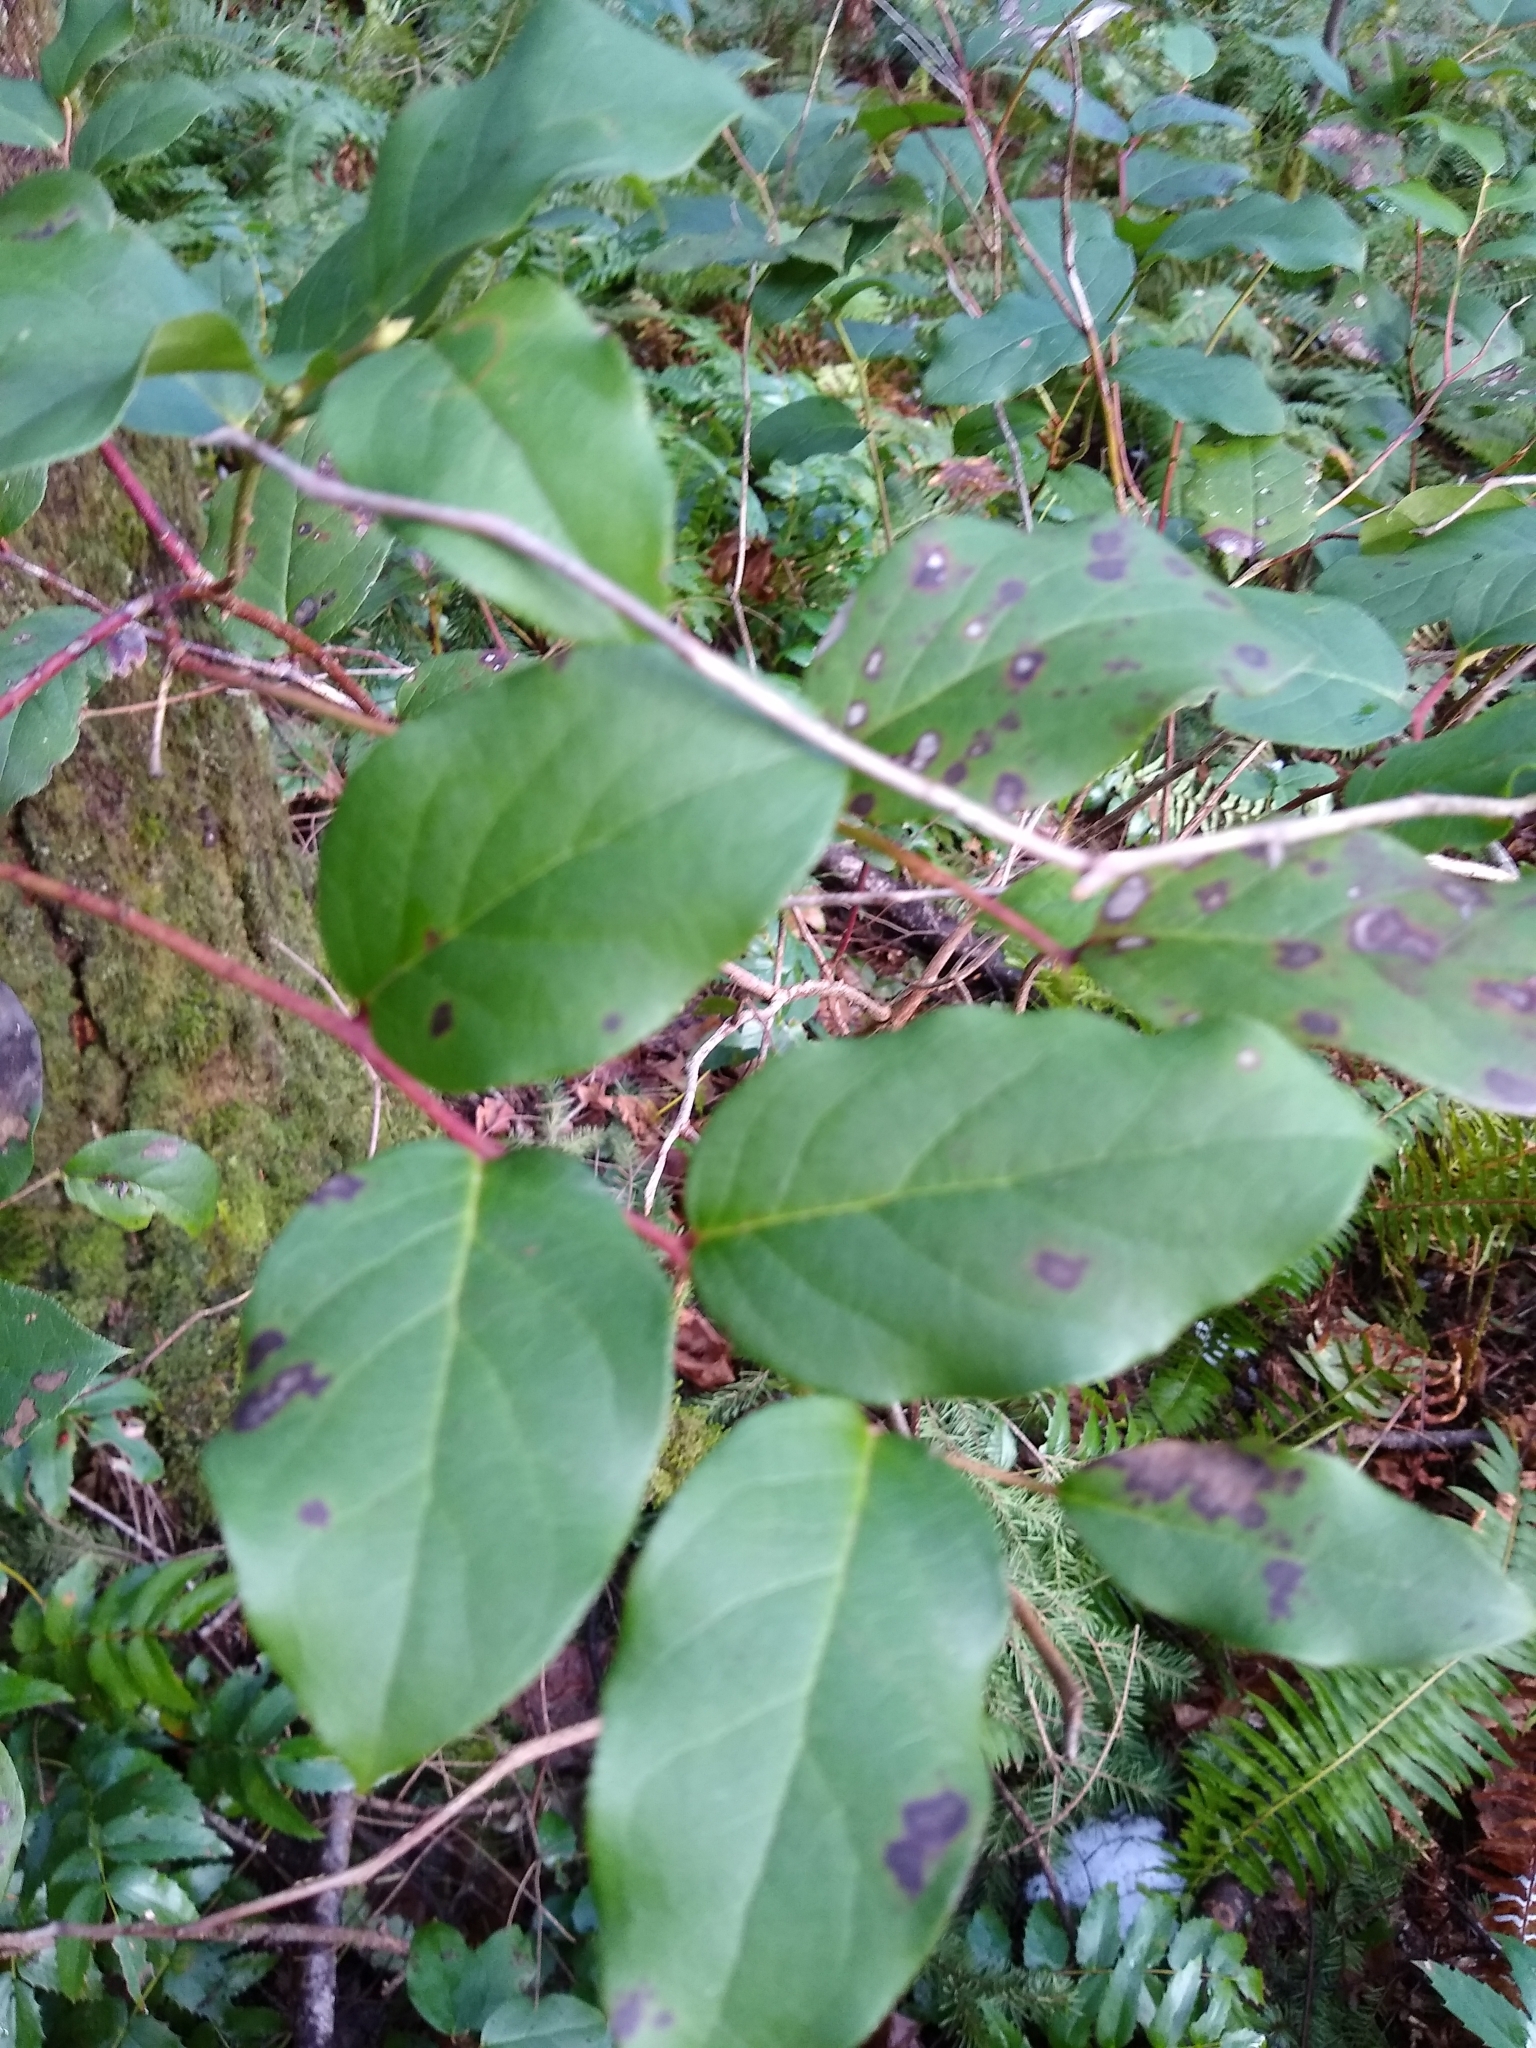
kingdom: Plantae
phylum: Tracheophyta
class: Magnoliopsida
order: Ericales
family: Ericaceae
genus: Gaultheria
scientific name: Gaultheria shallon
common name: Shallon
